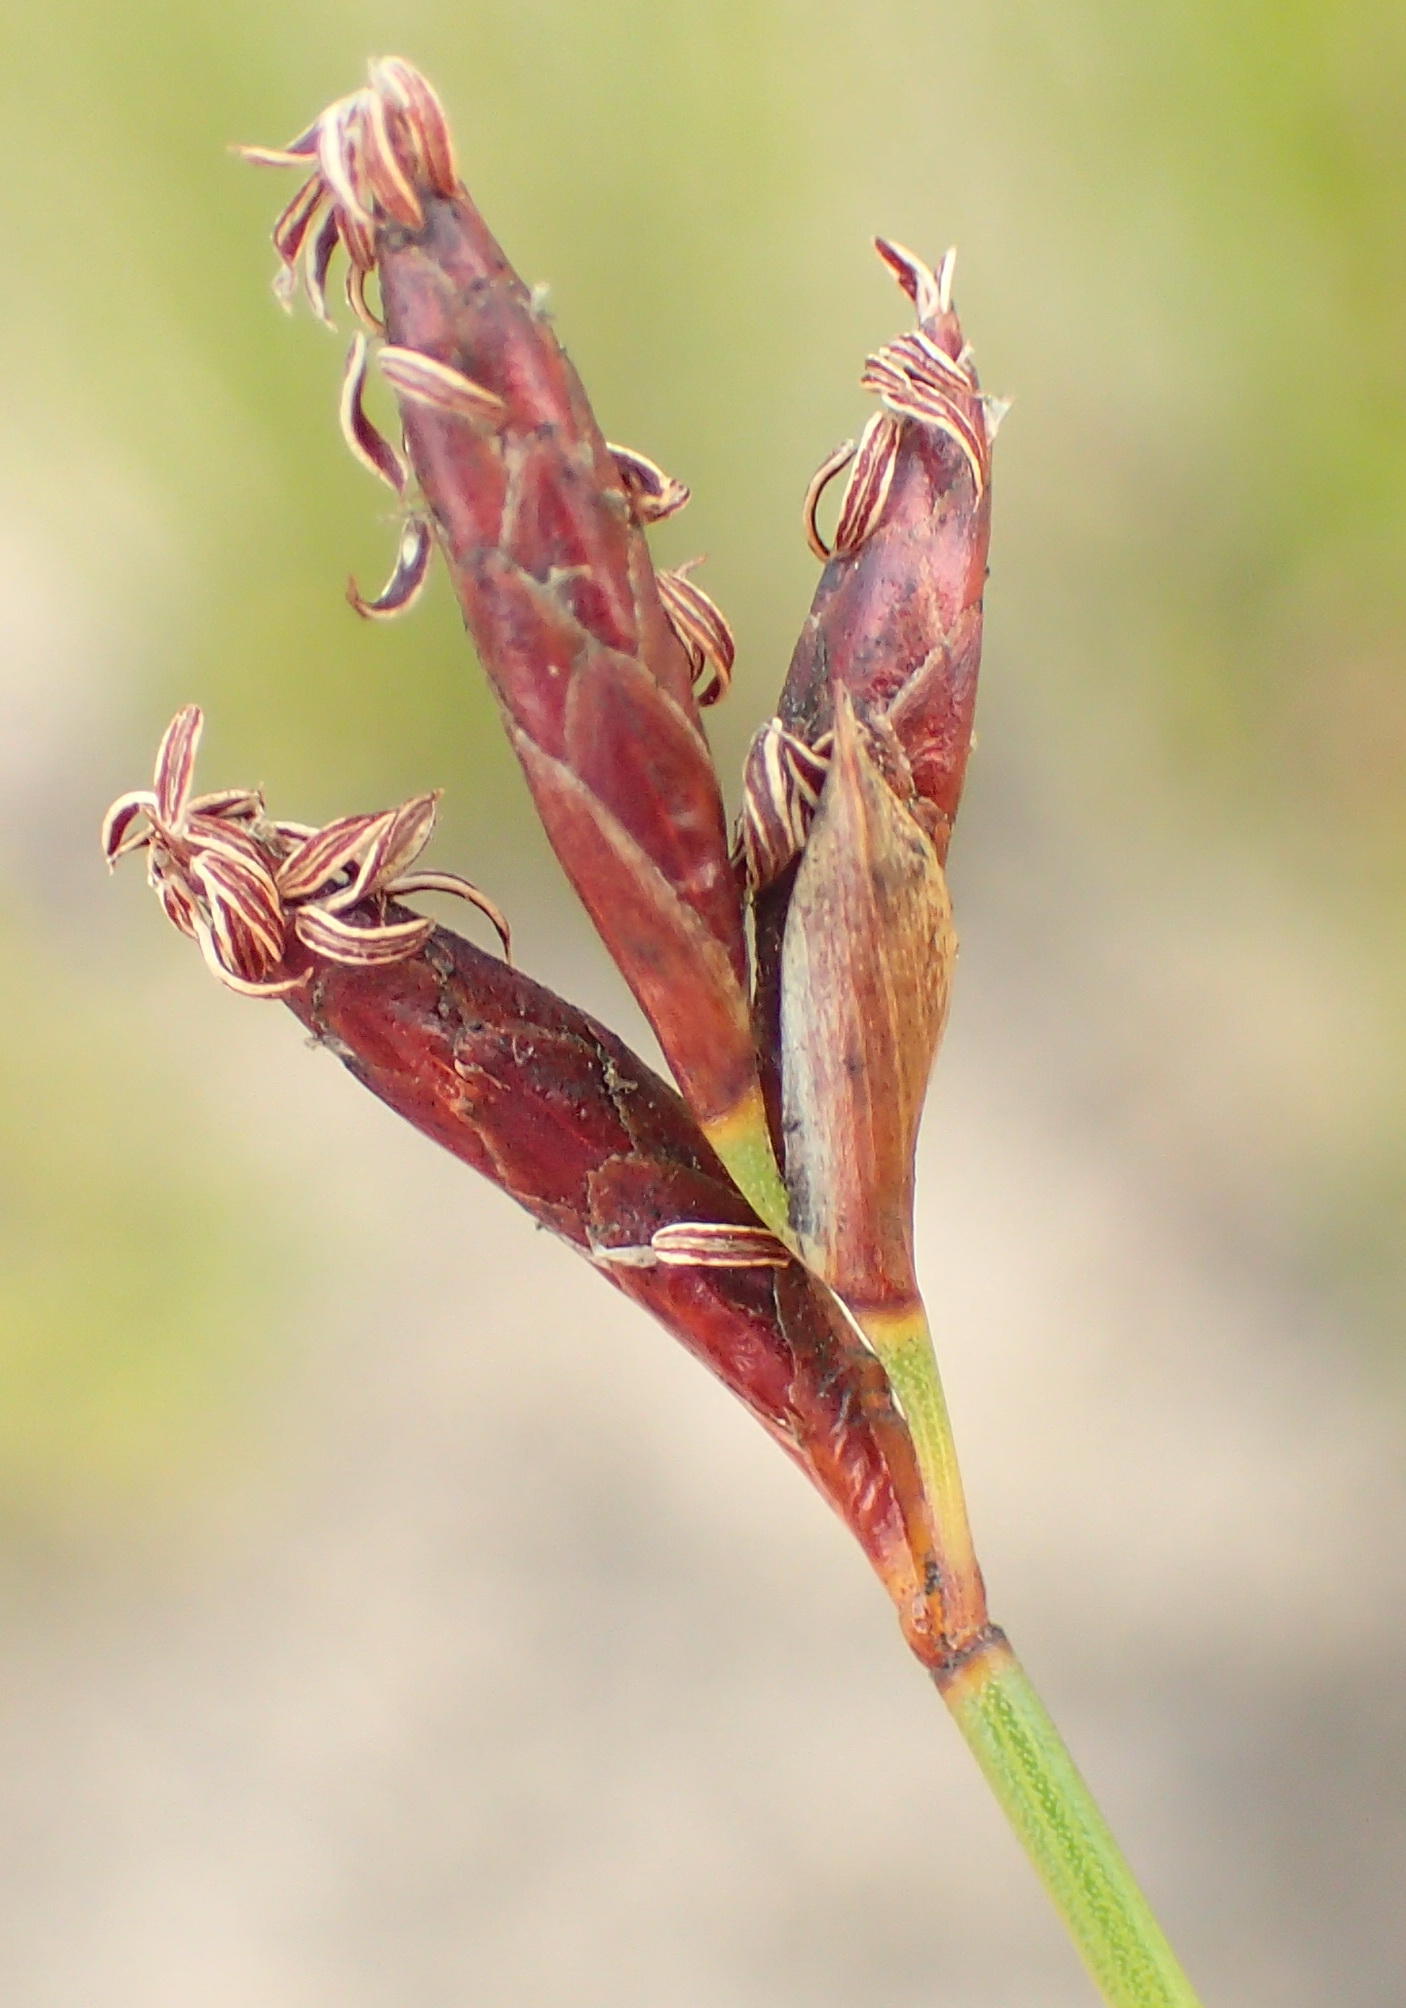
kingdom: Plantae
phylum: Tracheophyta
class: Liliopsida
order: Poales
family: Restionaceae
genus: Hypodiscus
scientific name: Hypodiscus striatus
